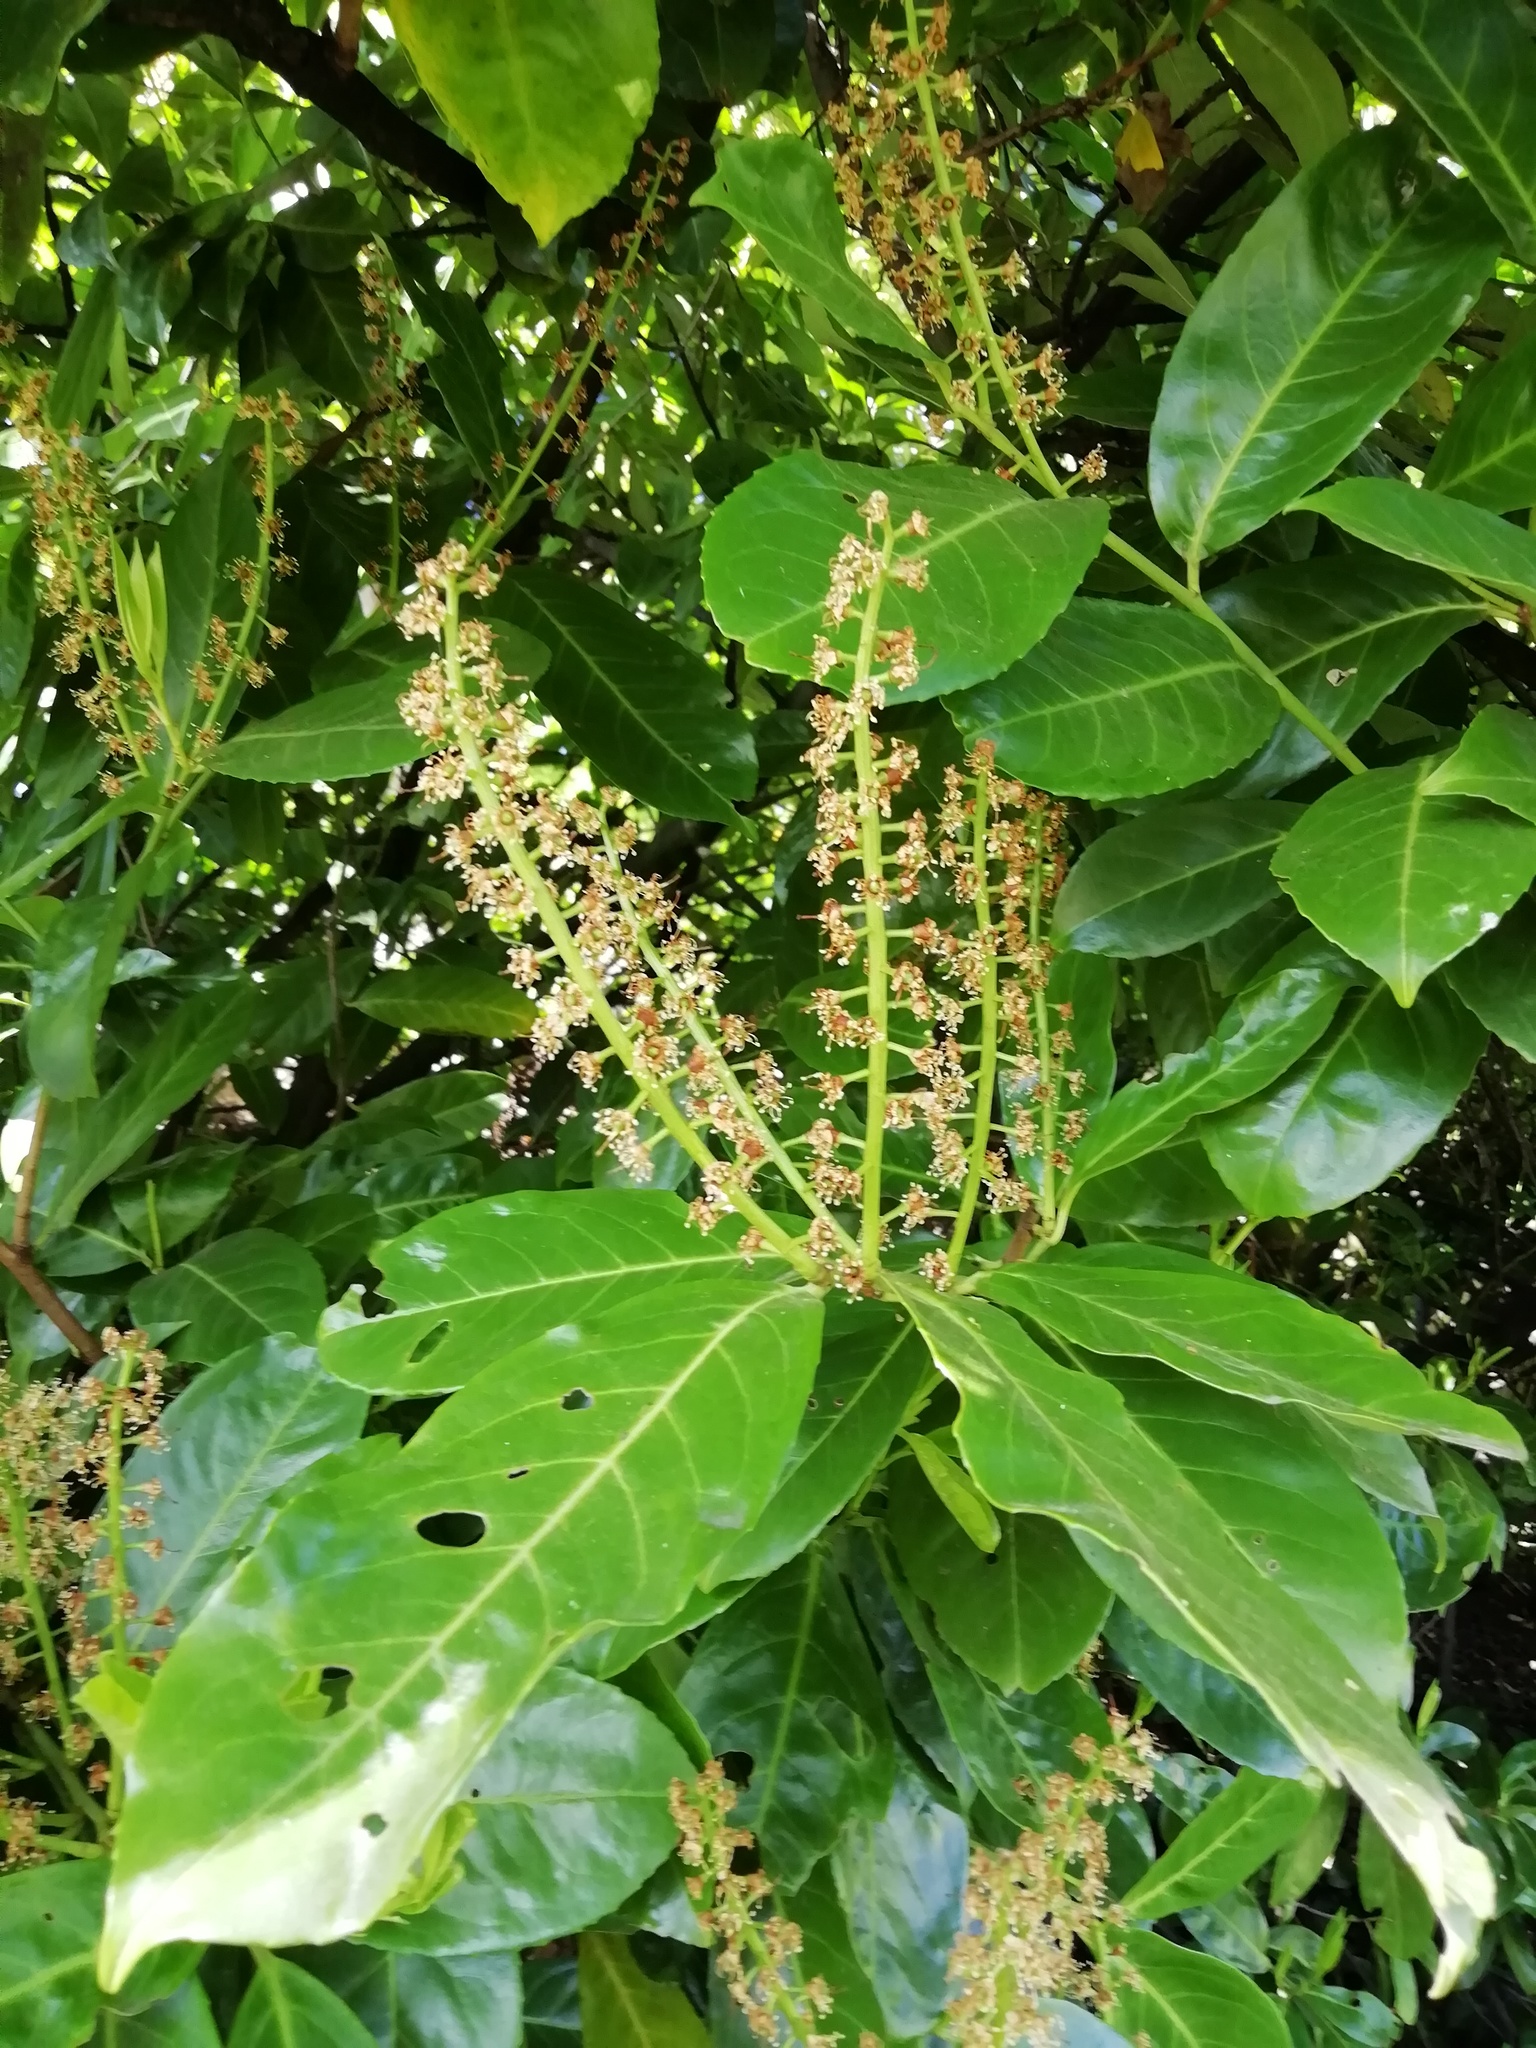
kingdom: Plantae
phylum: Tracheophyta
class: Magnoliopsida
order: Rosales
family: Rosaceae
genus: Prunus
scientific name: Prunus laurocerasus
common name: Cherry laurel
